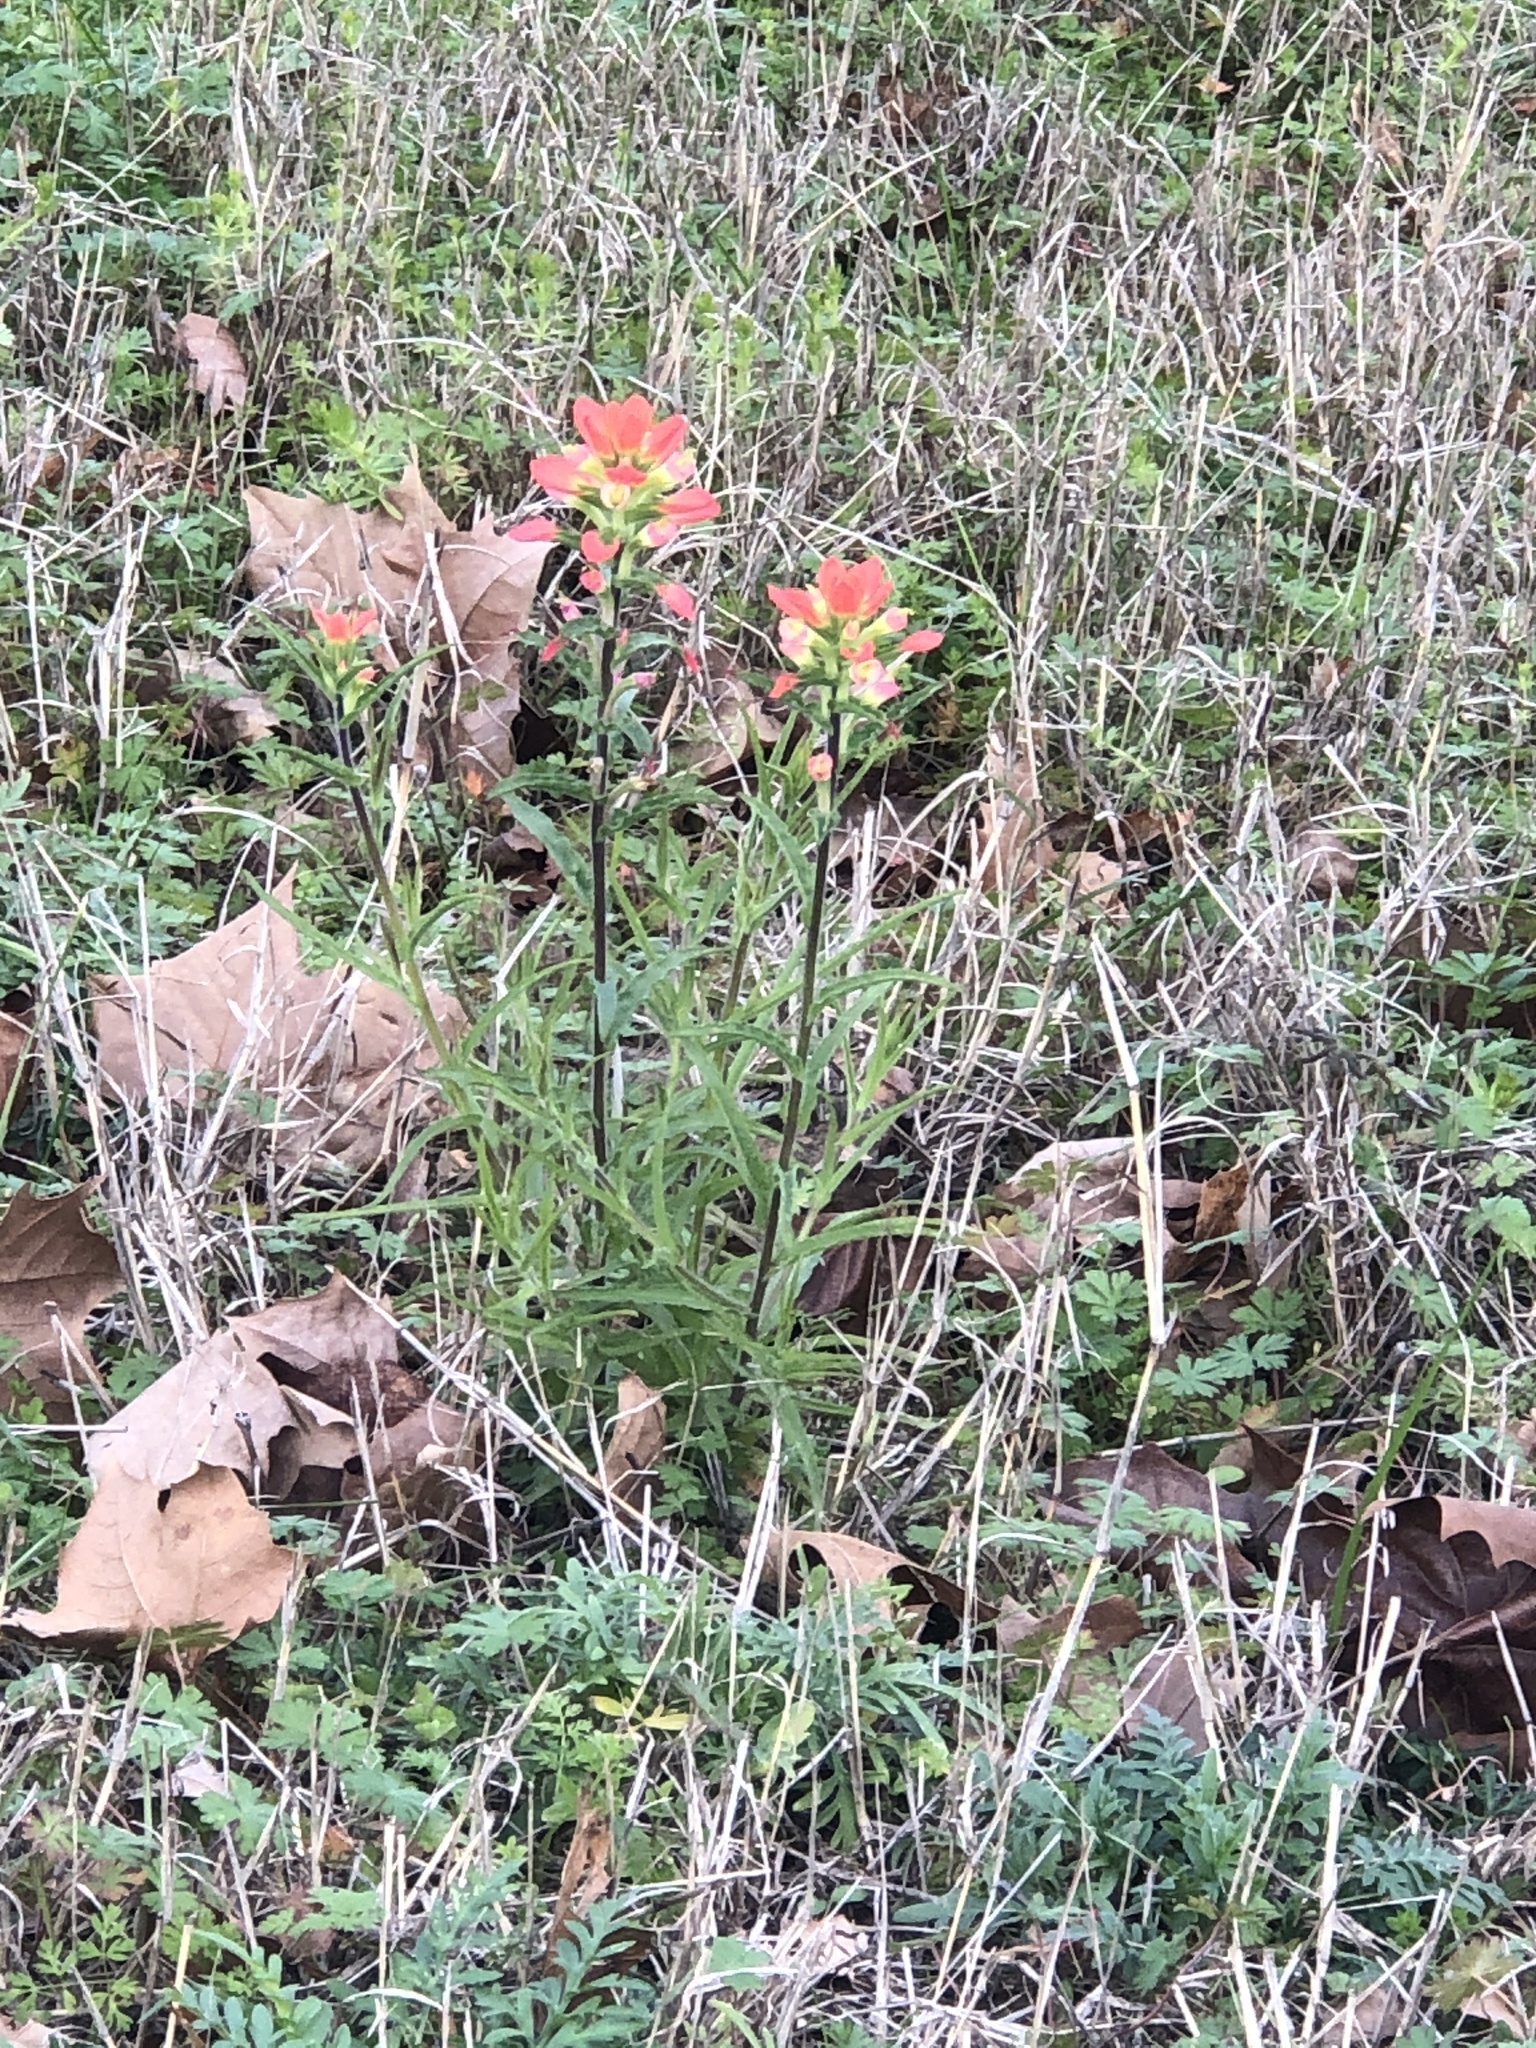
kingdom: Plantae
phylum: Tracheophyta
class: Magnoliopsida
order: Lamiales
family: Orobanchaceae
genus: Castilleja
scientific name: Castilleja indivisa
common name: Texas paintbrush
